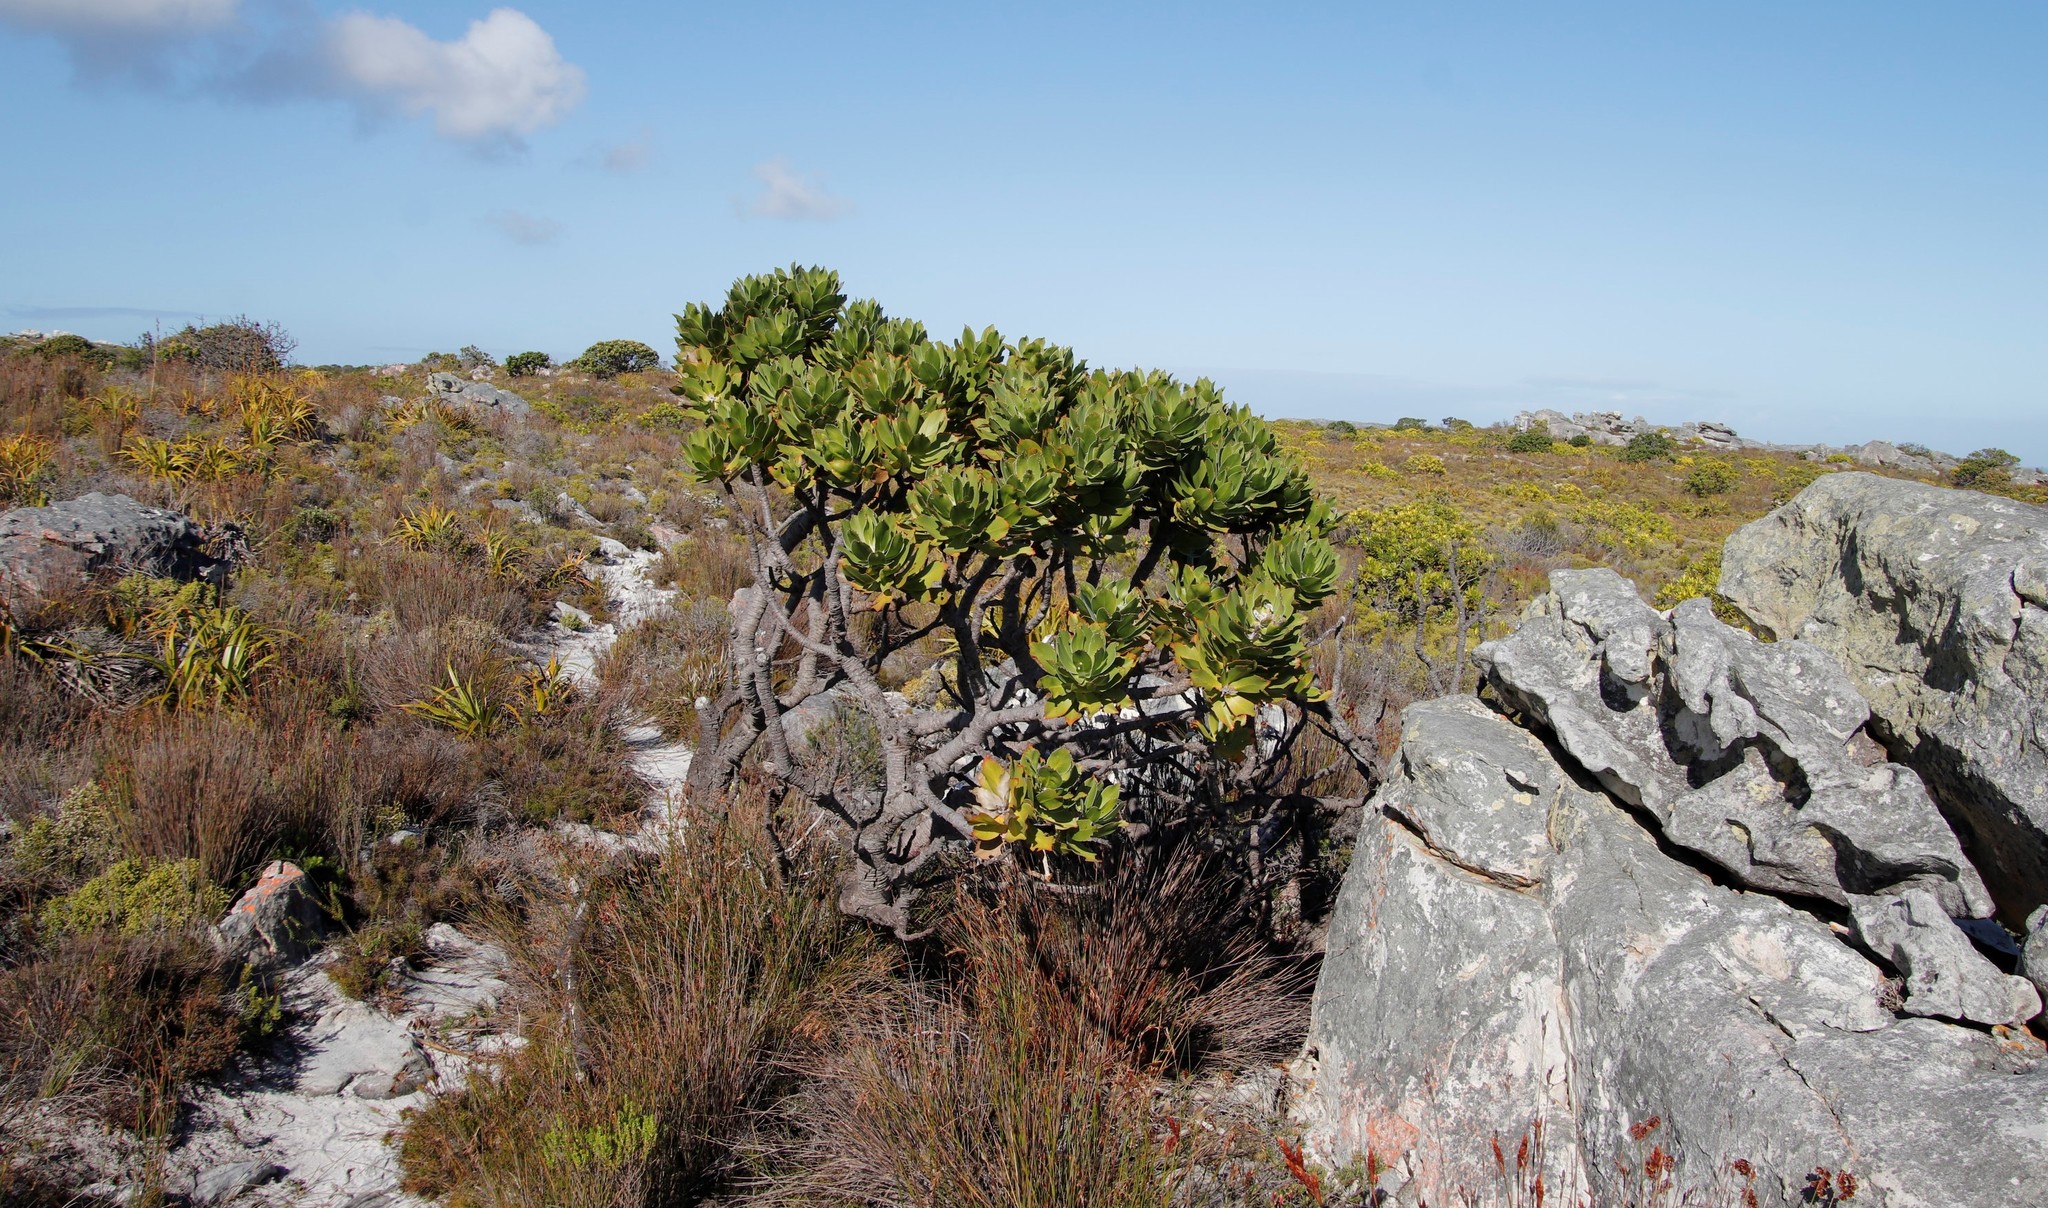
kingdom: Plantae
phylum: Tracheophyta
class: Magnoliopsida
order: Proteales
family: Proteaceae
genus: Leucospermum
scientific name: Leucospermum conocarpodendron
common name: Tree pincushion
